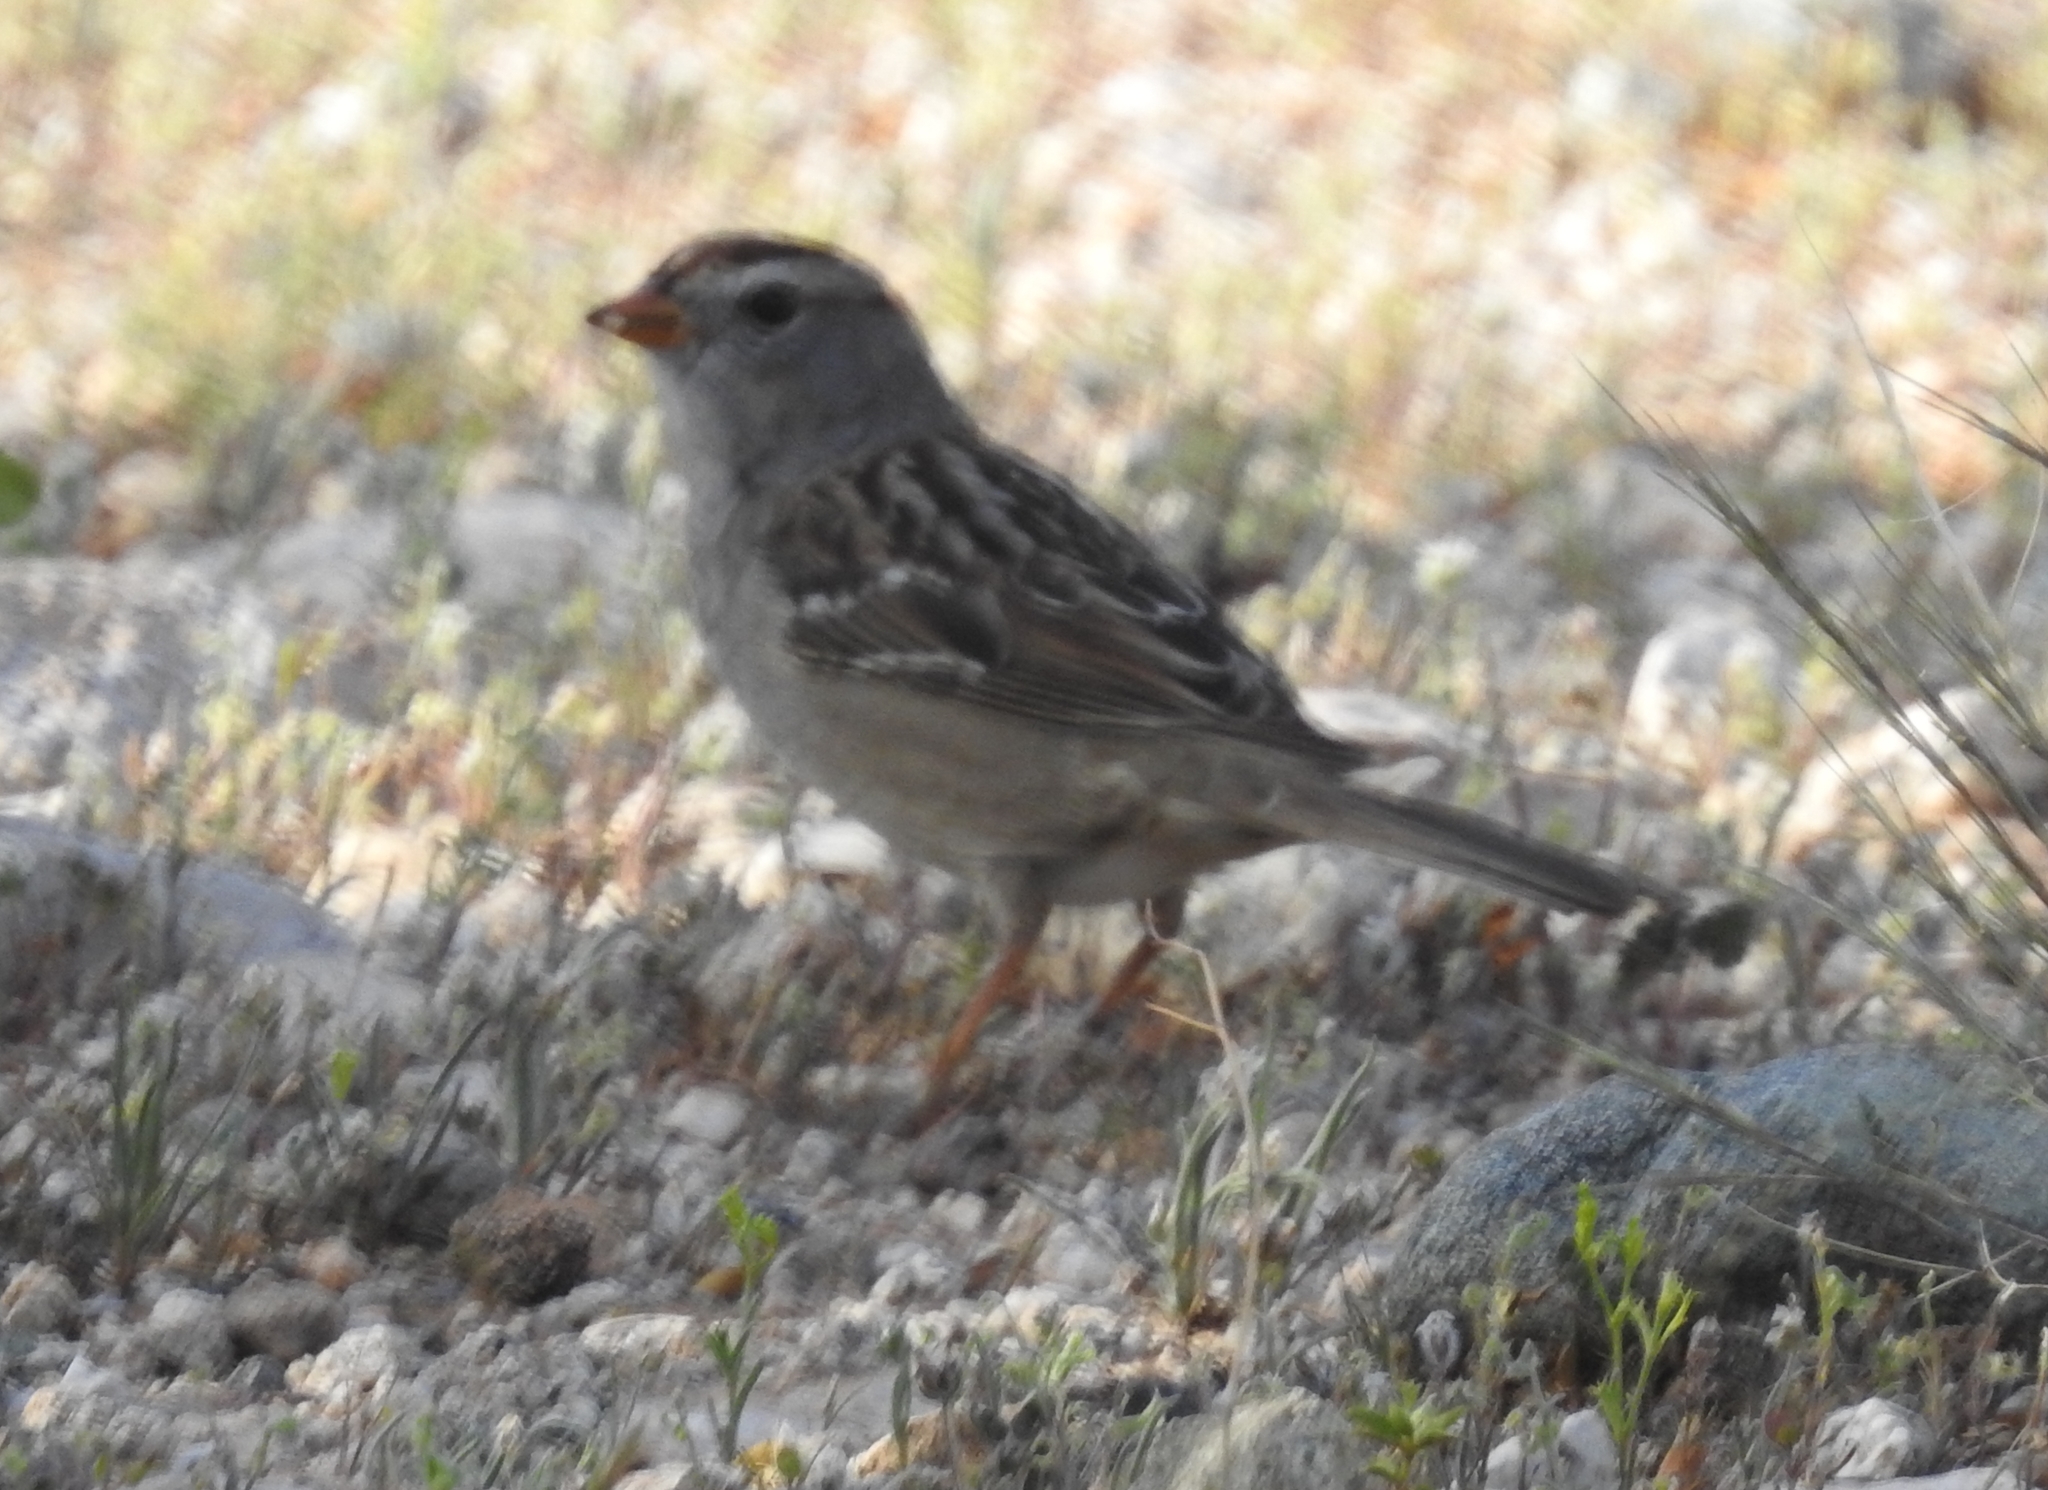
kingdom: Animalia
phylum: Chordata
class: Aves
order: Passeriformes
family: Passerellidae
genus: Zonotrichia
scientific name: Zonotrichia leucophrys
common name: White-crowned sparrow
